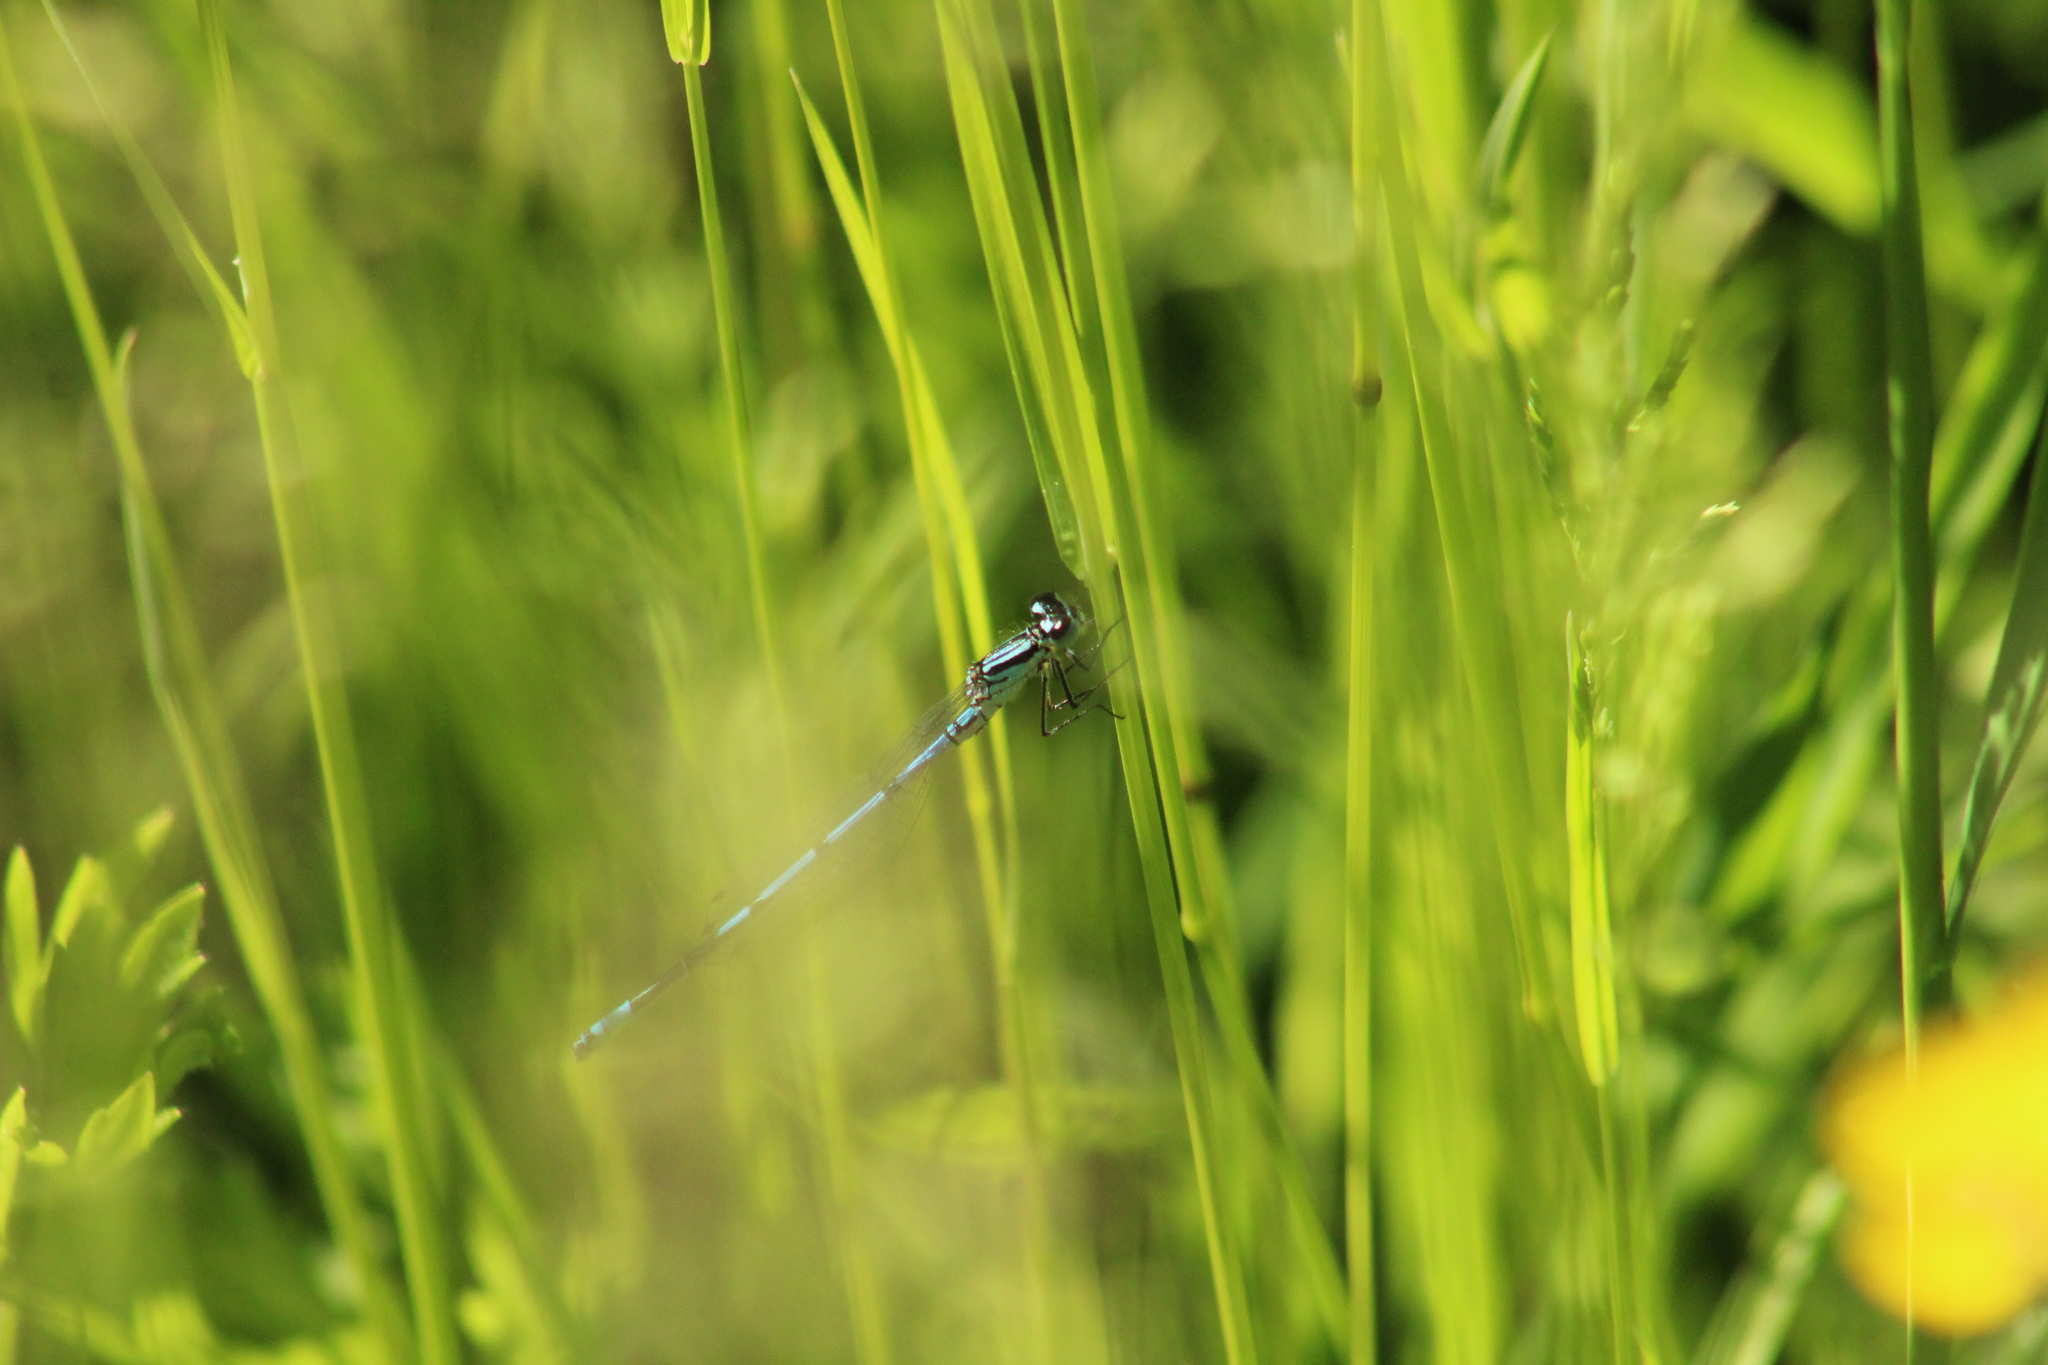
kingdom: Animalia
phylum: Arthropoda
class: Insecta
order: Odonata
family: Coenagrionidae
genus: Coenagrion
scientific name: Coenagrion puella
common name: Azure damselfly
